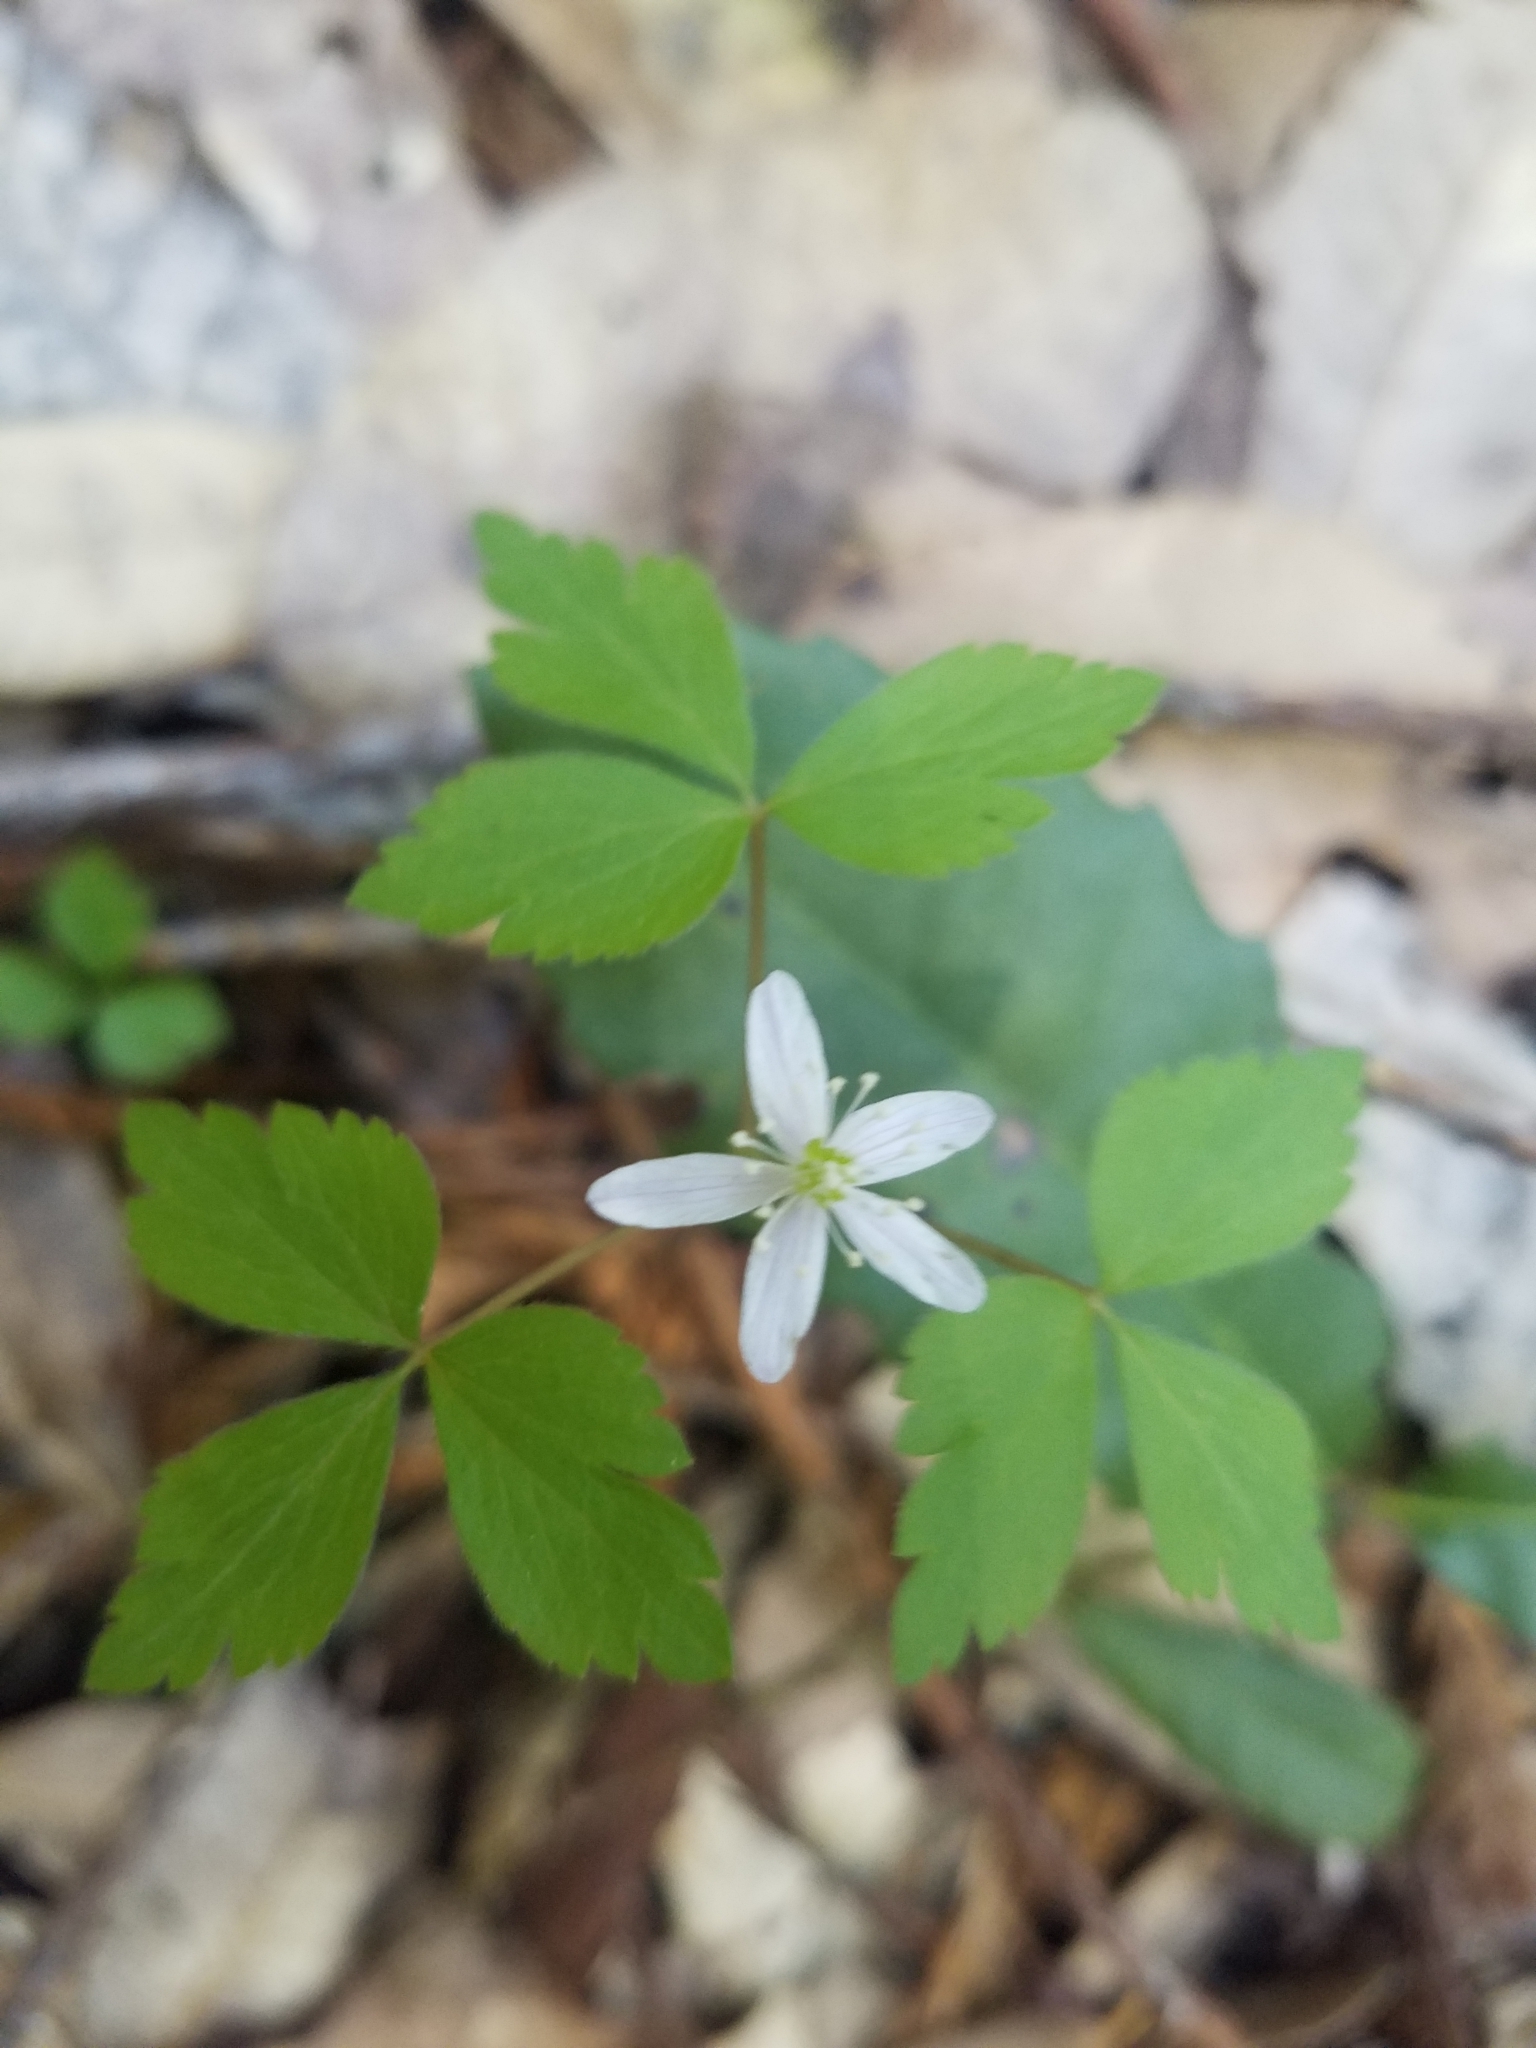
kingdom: Plantae
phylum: Tracheophyta
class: Magnoliopsida
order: Ranunculales
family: Ranunculaceae
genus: Anemone
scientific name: Anemone
